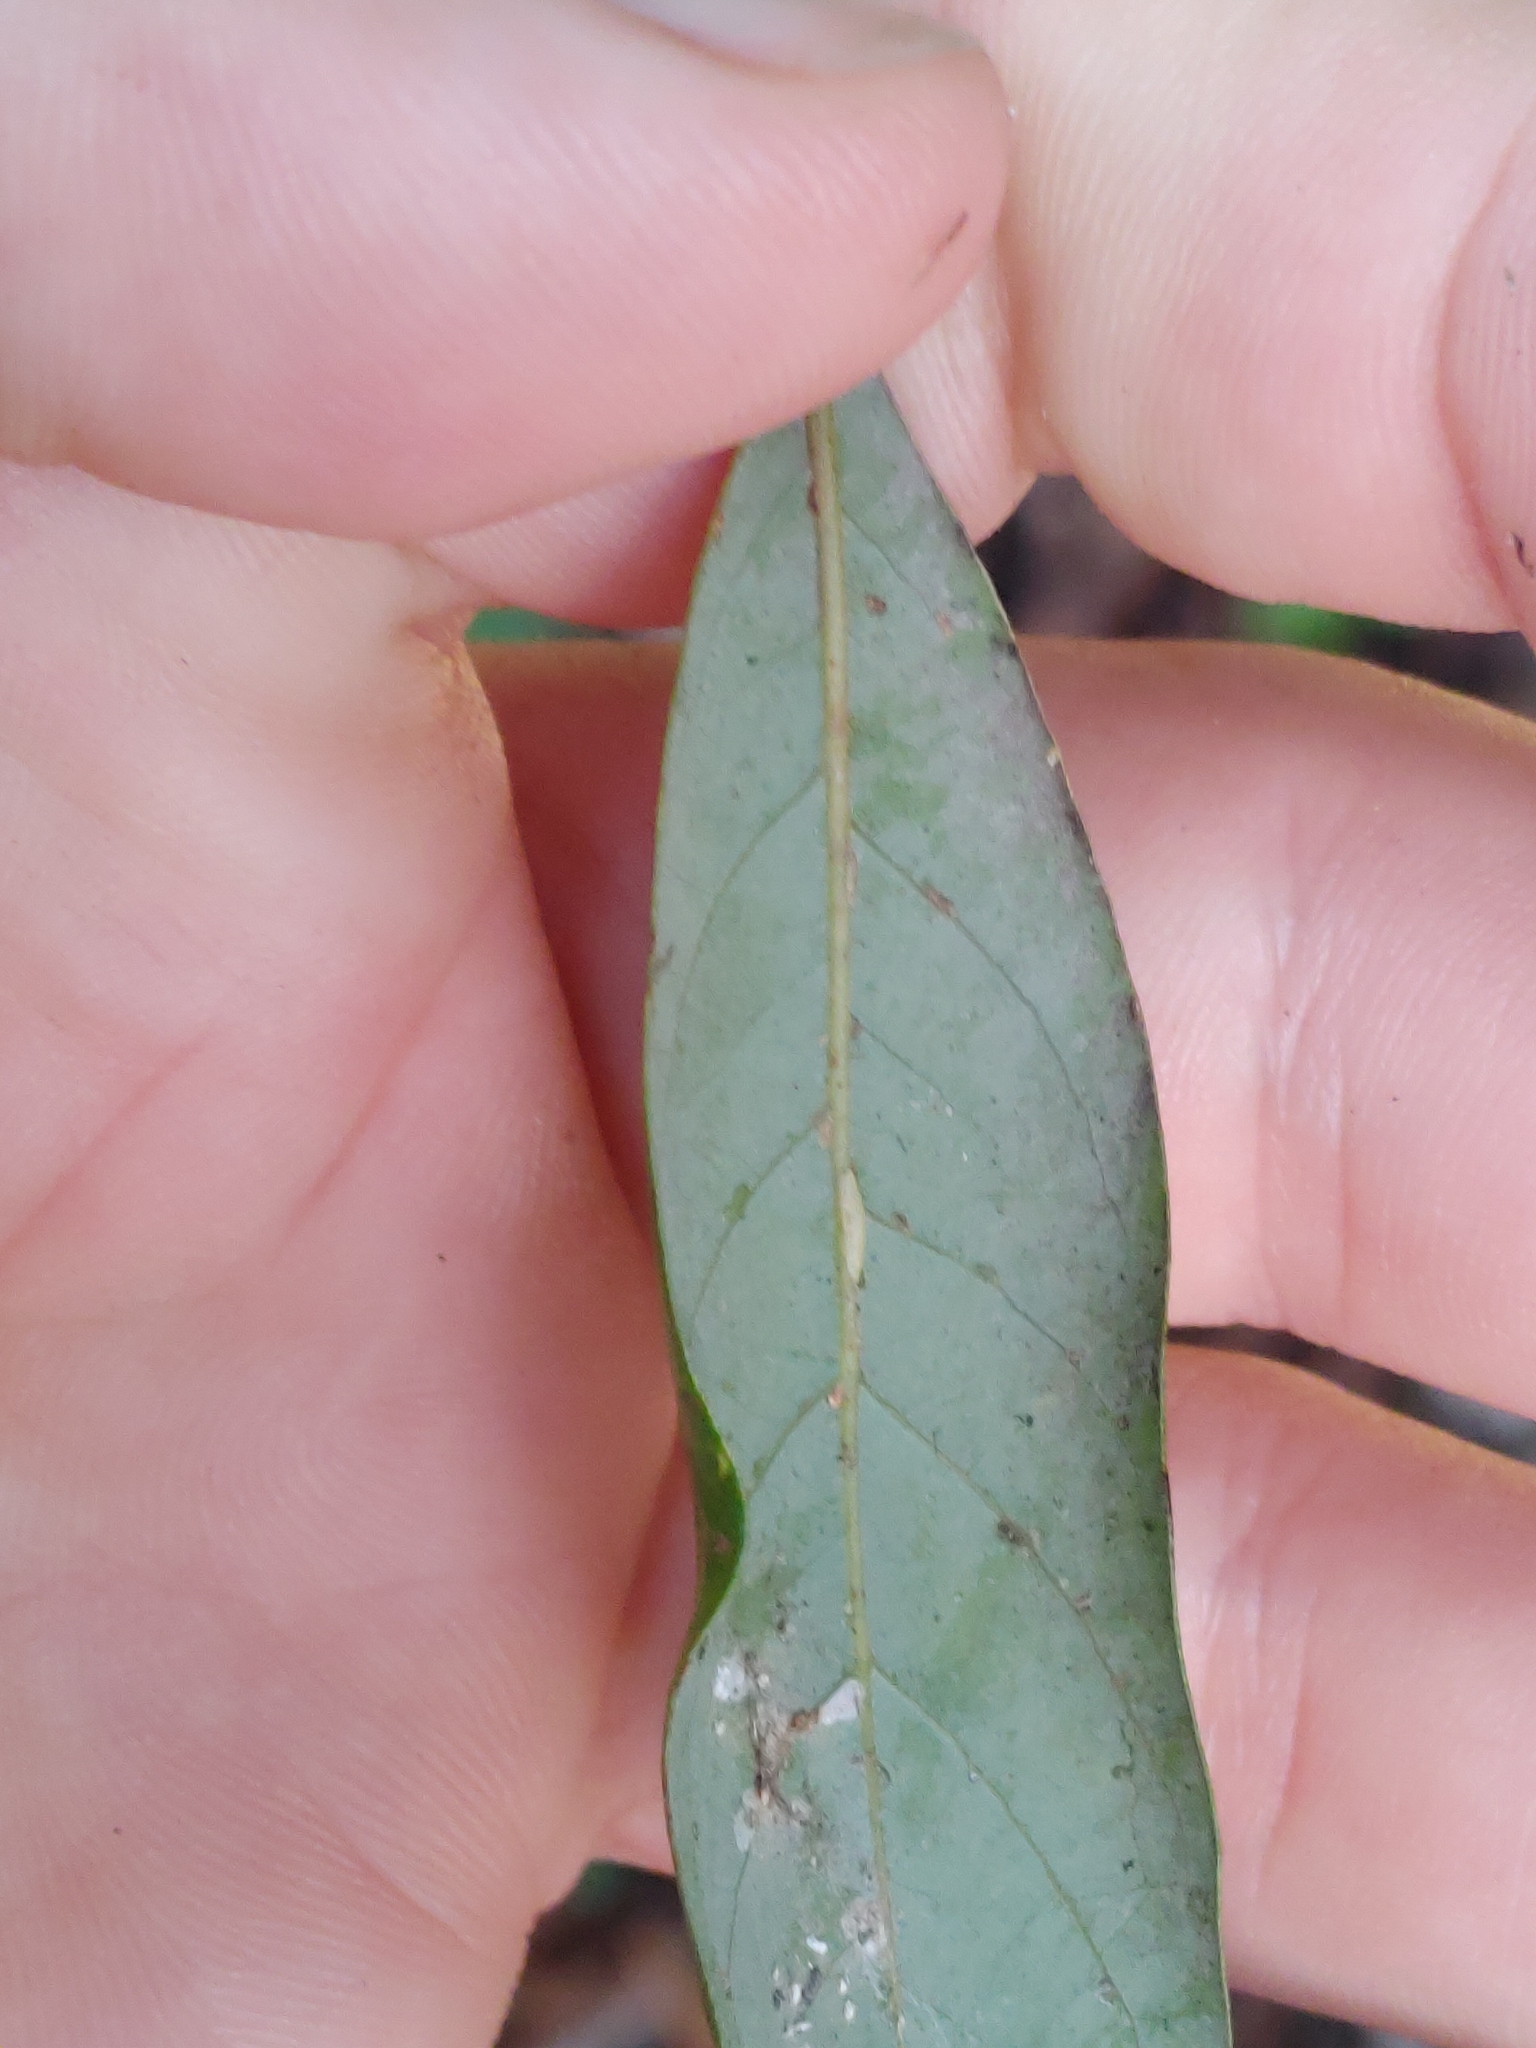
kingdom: Plantae
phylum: Tracheophyta
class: Magnoliopsida
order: Laurales
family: Lauraceae
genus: Persea
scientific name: Persea borbonia
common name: Redbay
